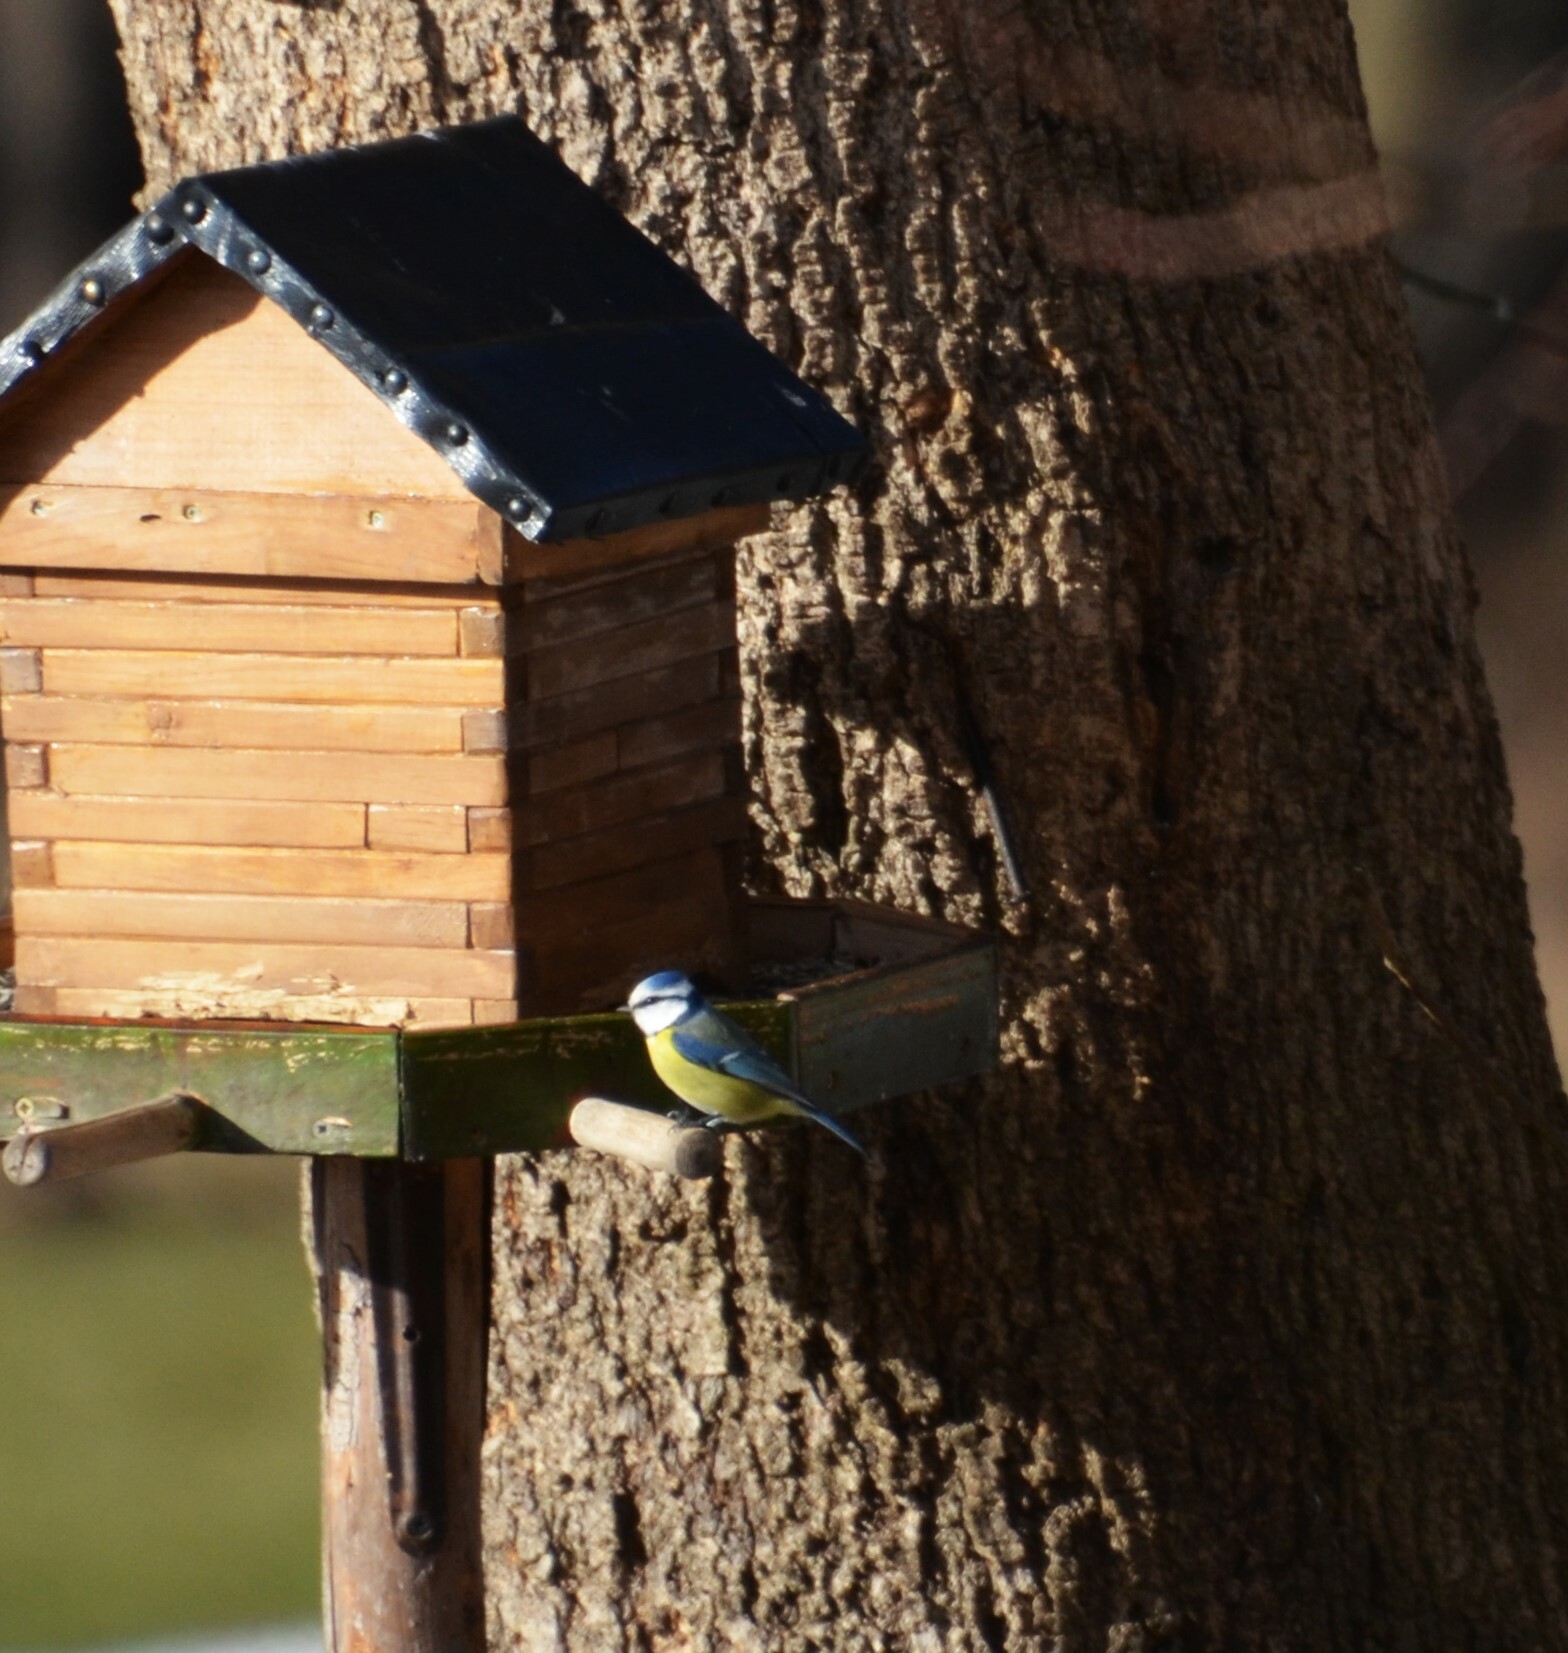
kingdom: Animalia
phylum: Chordata
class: Aves
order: Passeriformes
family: Paridae
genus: Cyanistes
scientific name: Cyanistes caeruleus
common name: Eurasian blue tit
